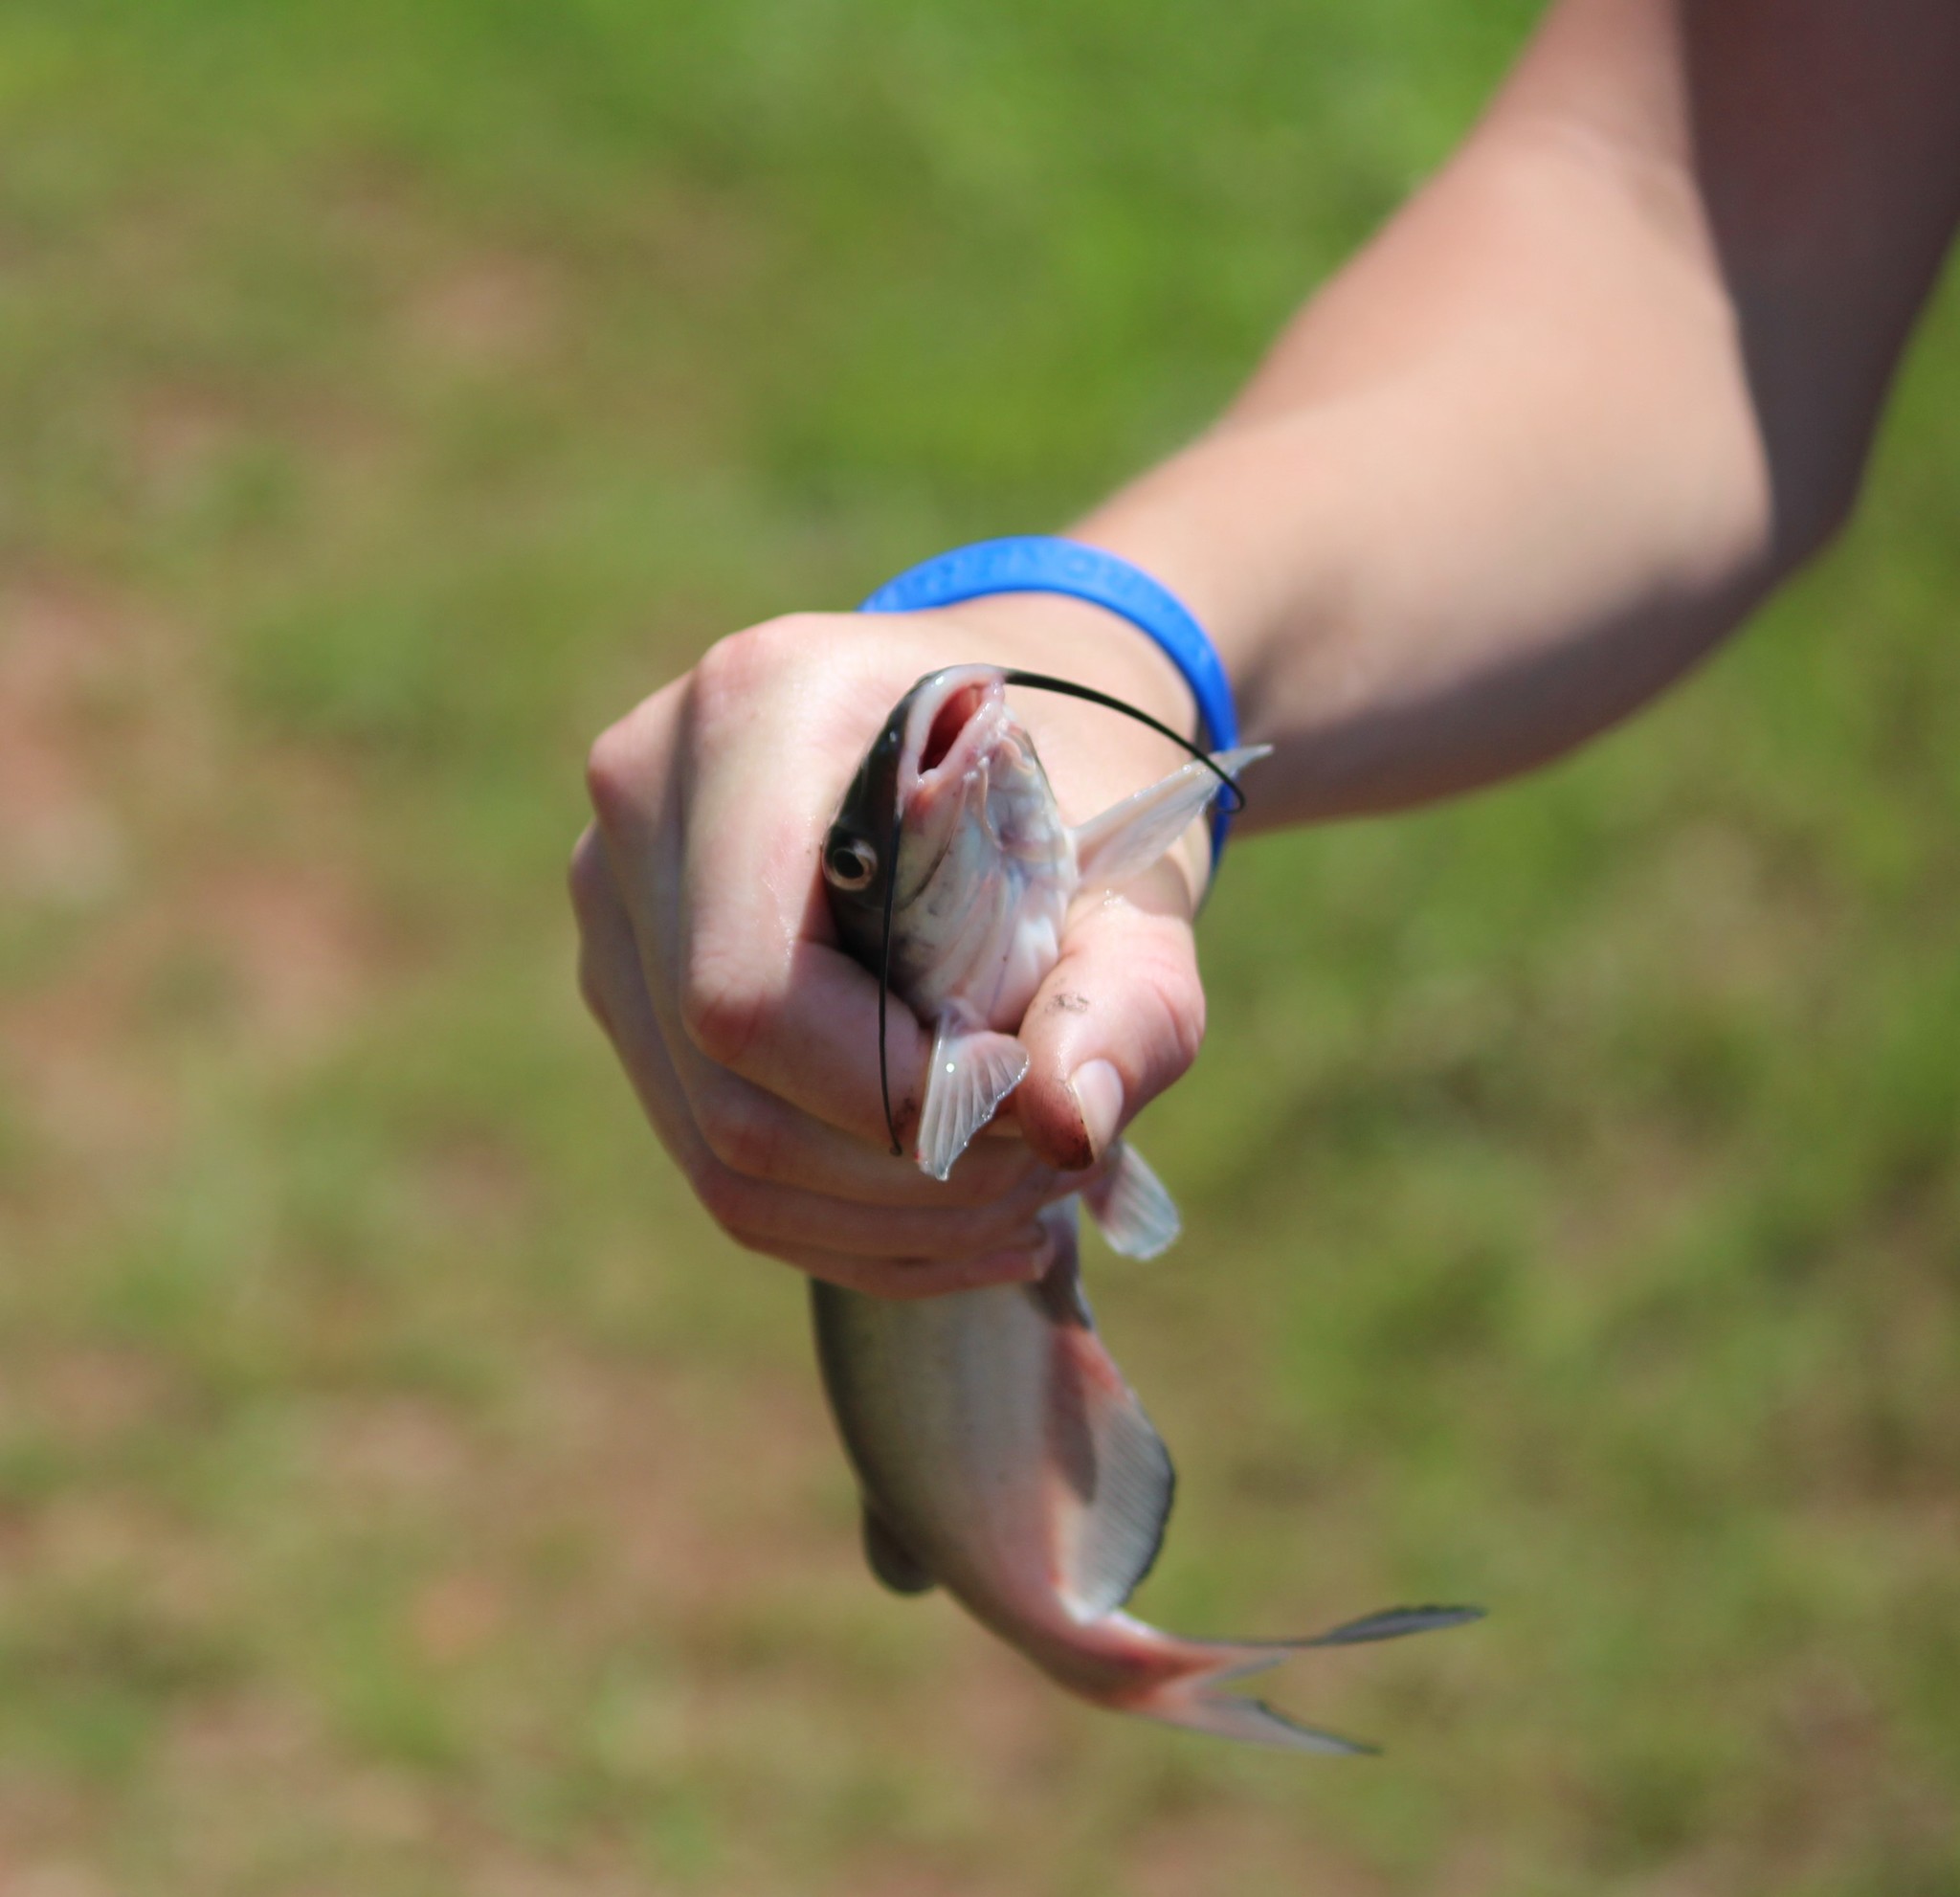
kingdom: Animalia
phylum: Chordata
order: Siluriformes
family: Ictaluridae
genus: Ictalurus
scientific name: Ictalurus punctatus
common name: Channel catfish
